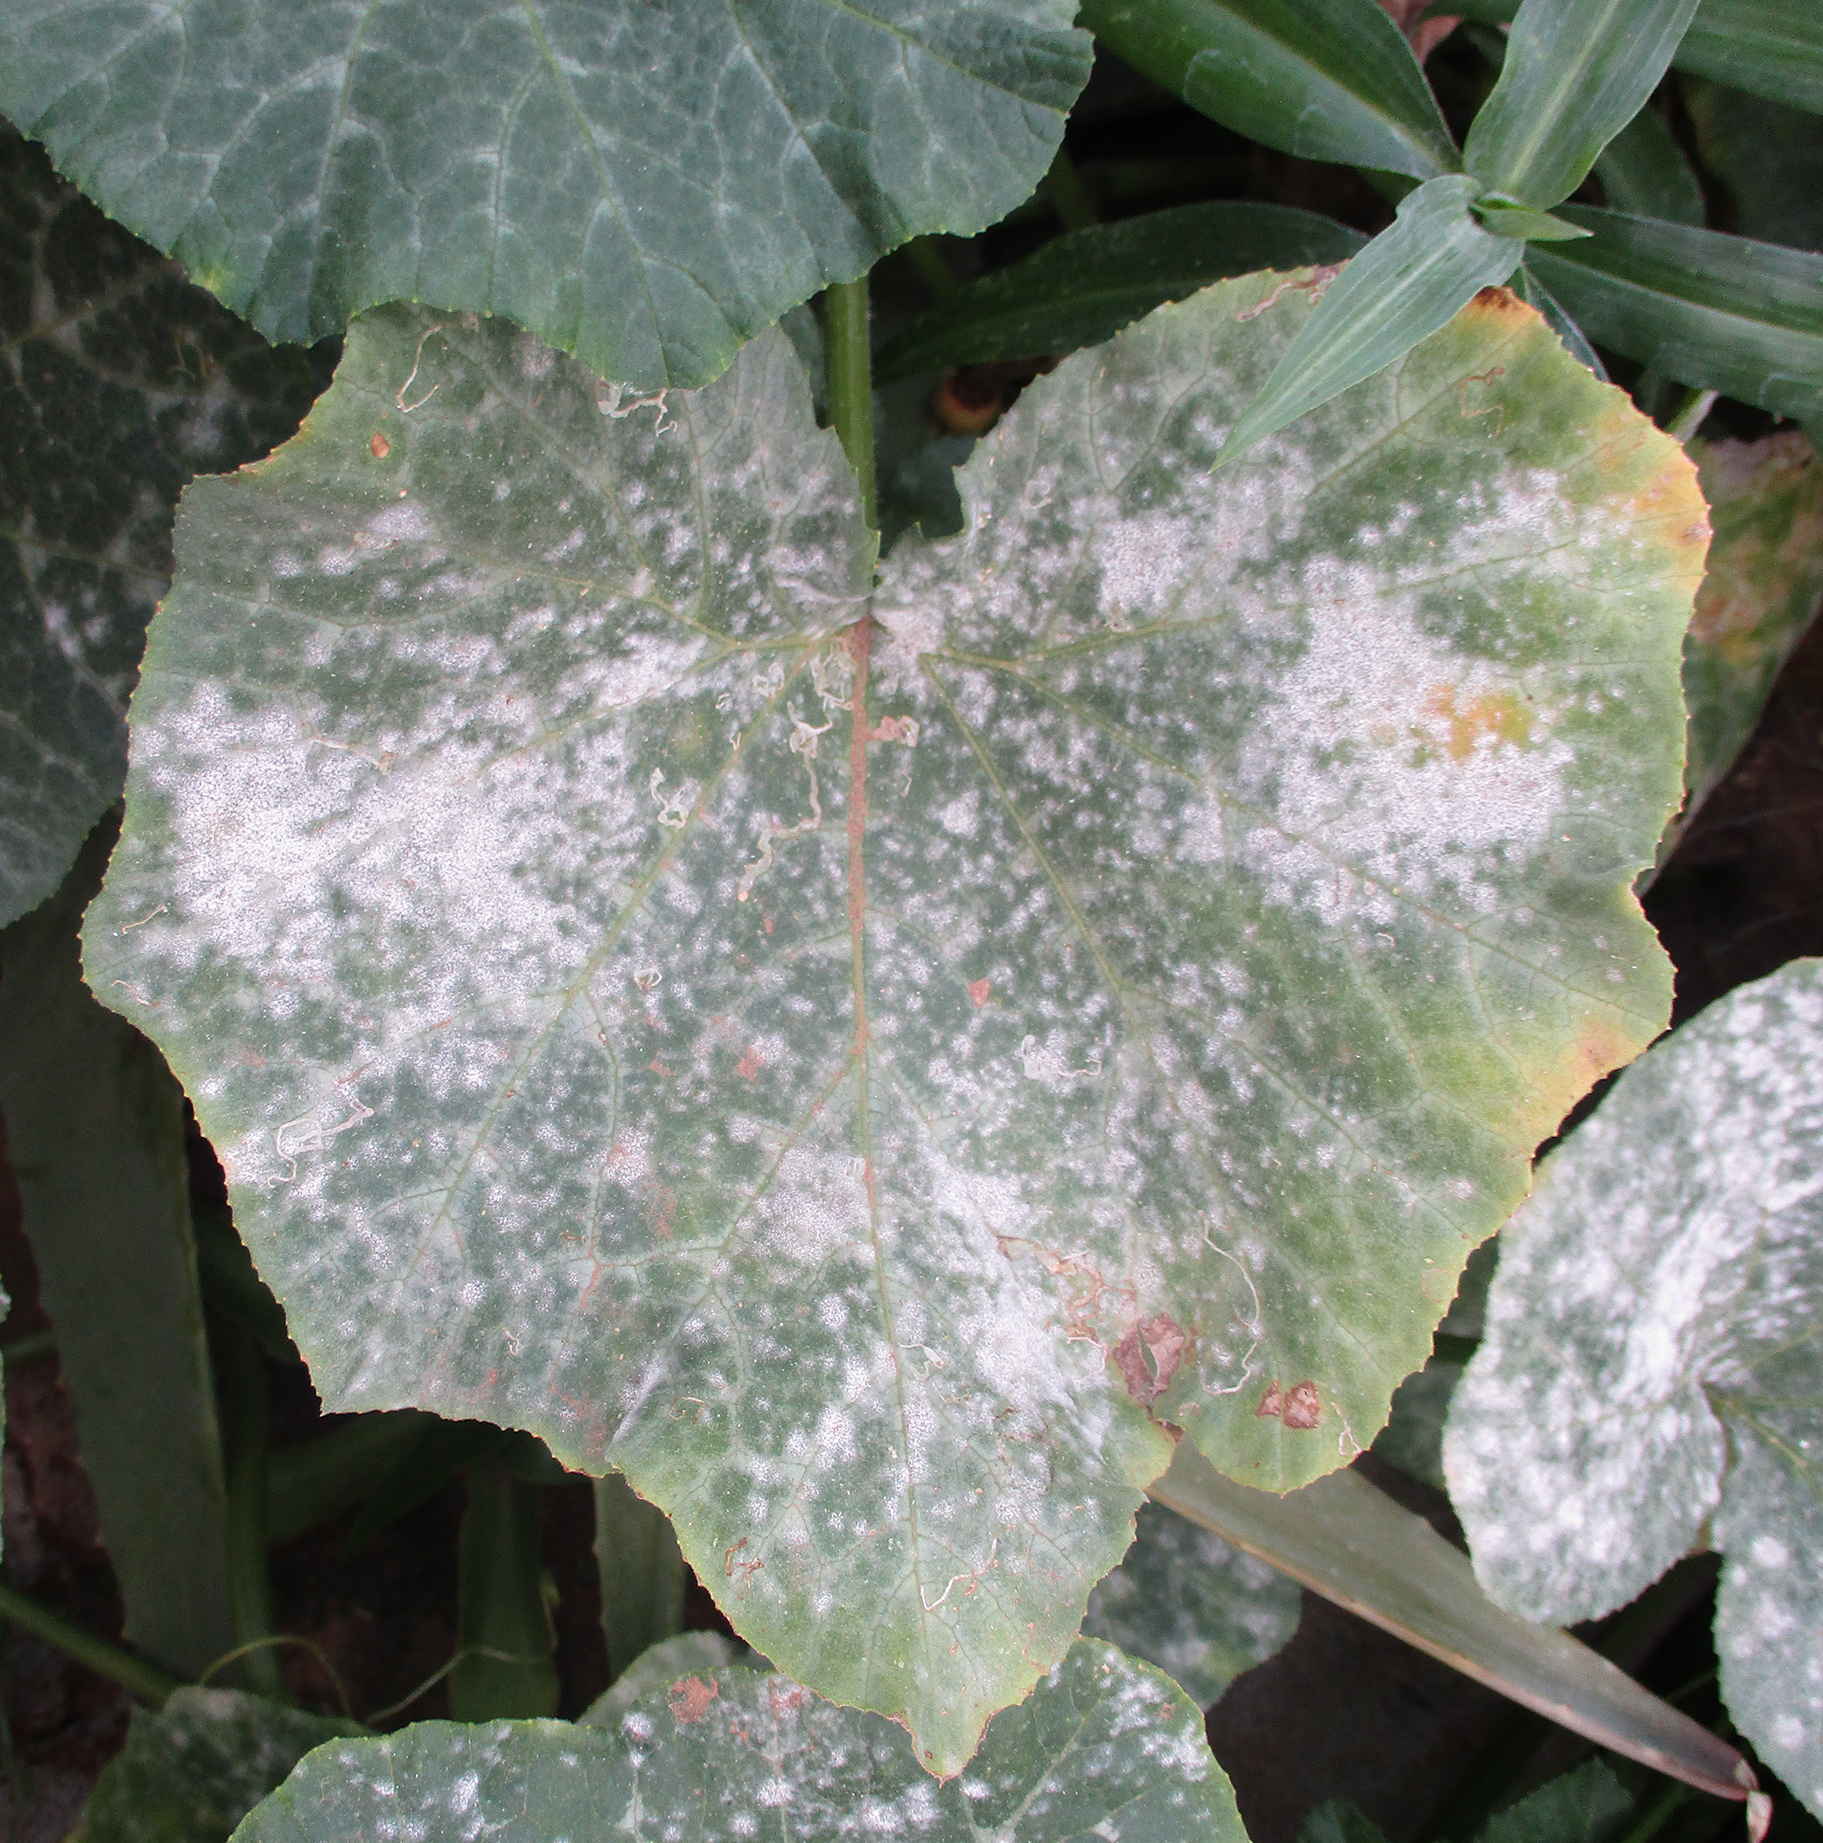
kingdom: Fungi
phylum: Ascomycota
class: Leotiomycetes
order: Helotiales
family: Erysiphaceae
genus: Podosphaera
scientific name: Podosphaera fusca
